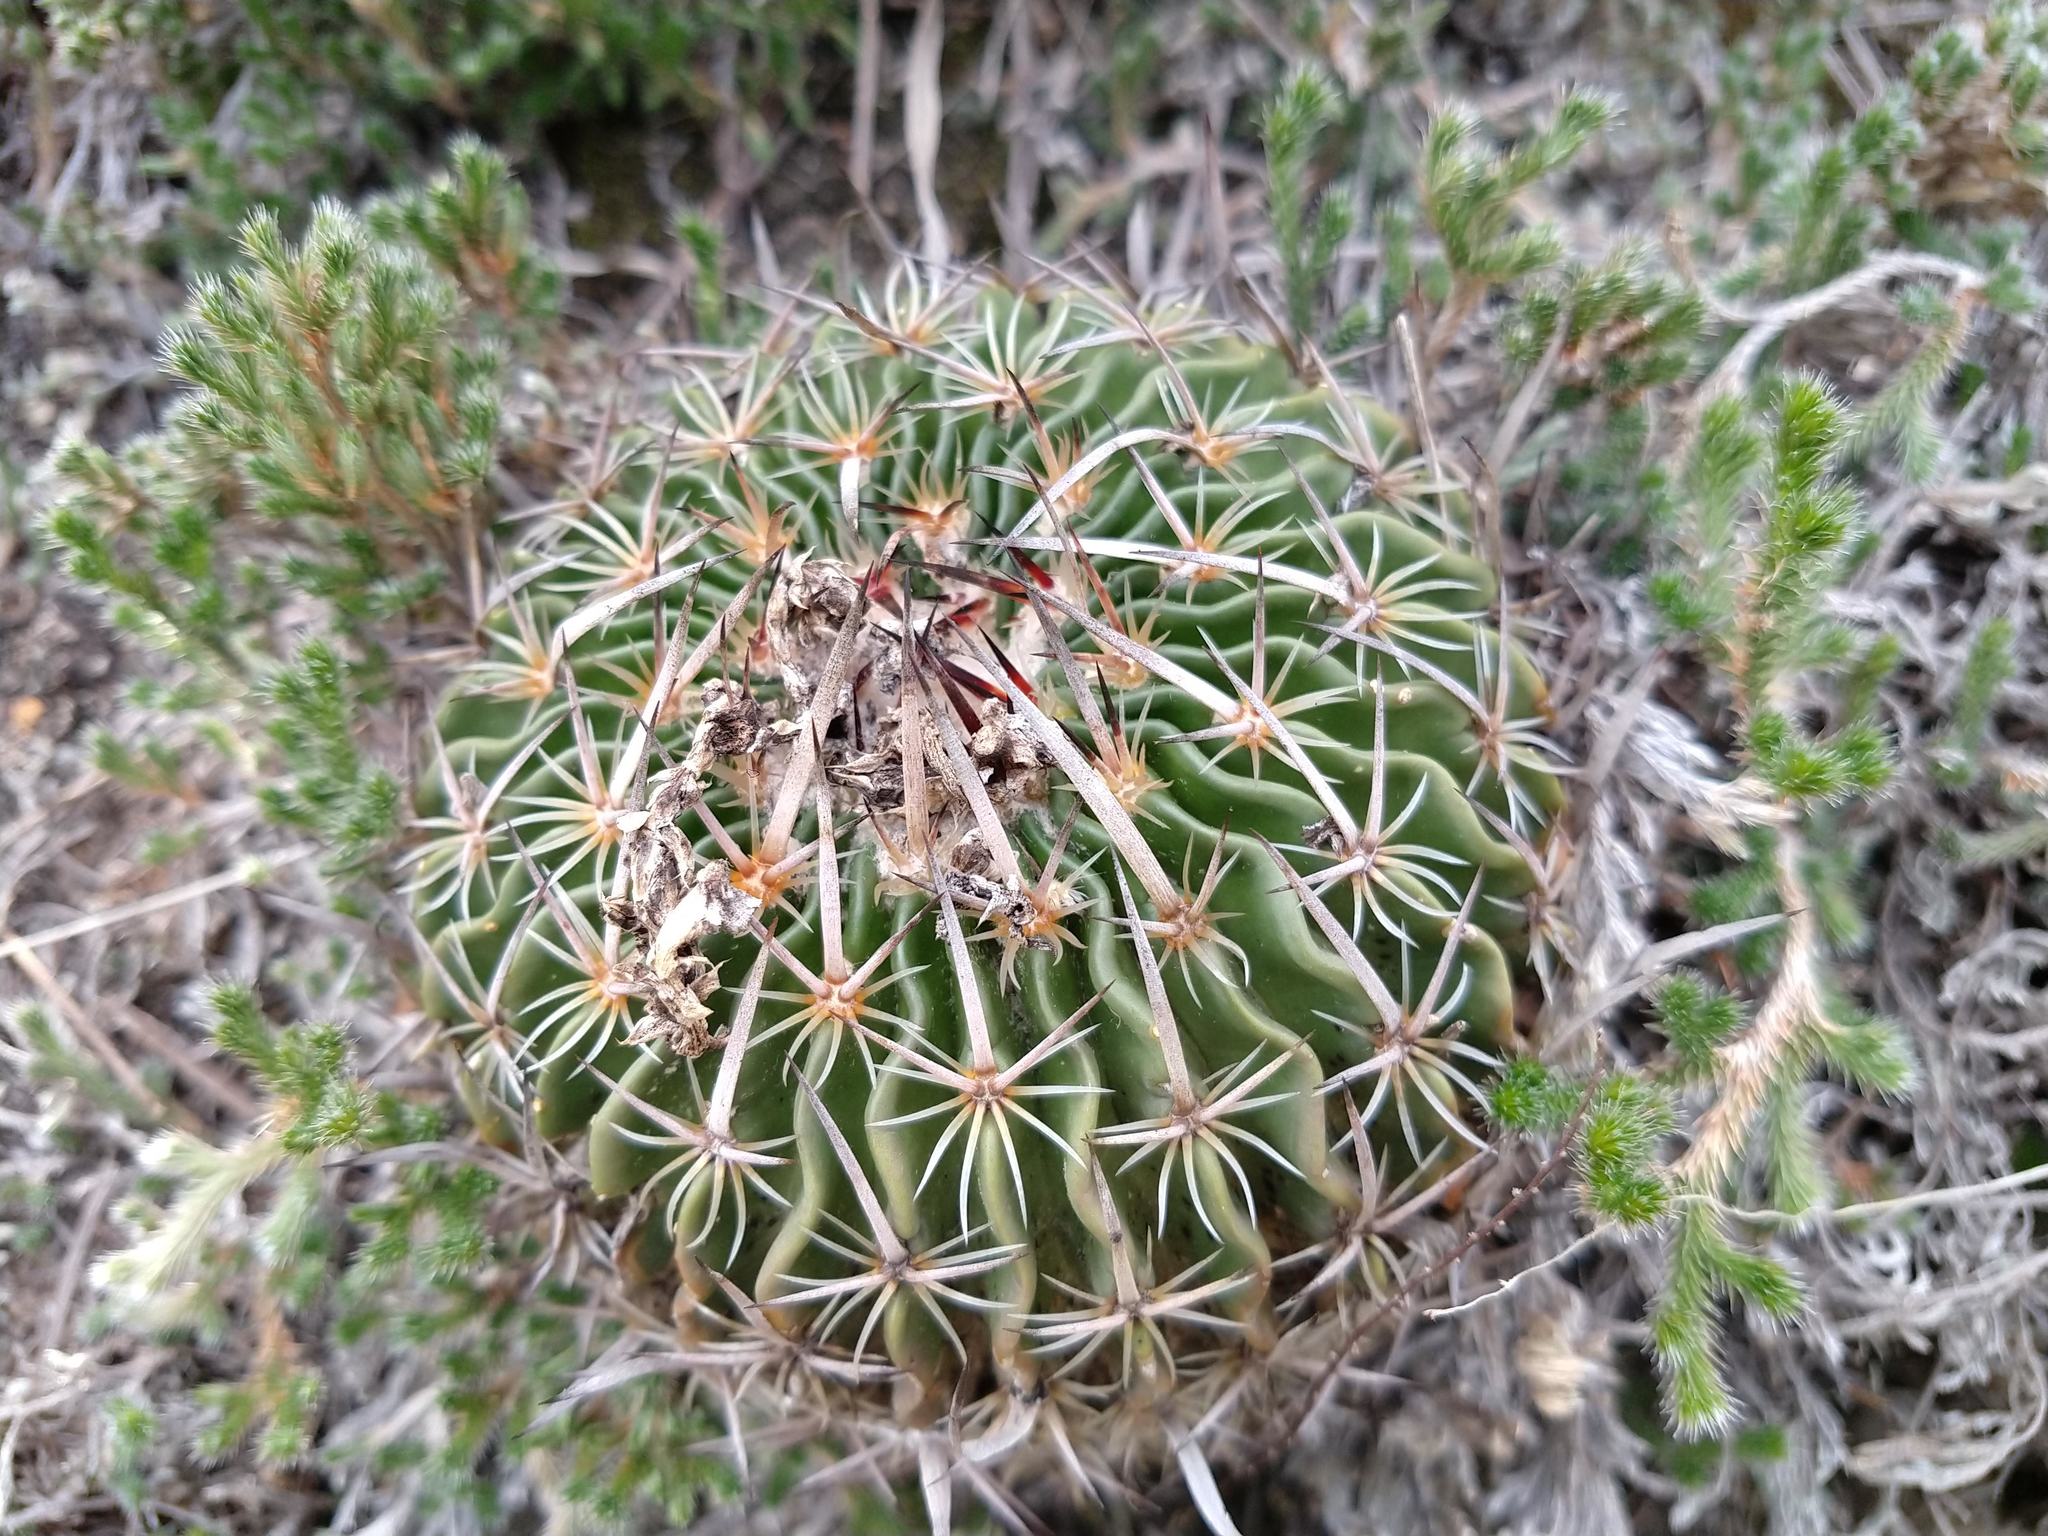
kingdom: Plantae
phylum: Tracheophyta
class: Magnoliopsida
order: Caryophyllales
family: Cactaceae
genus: Stenocactus
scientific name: Stenocactus multicostatus
